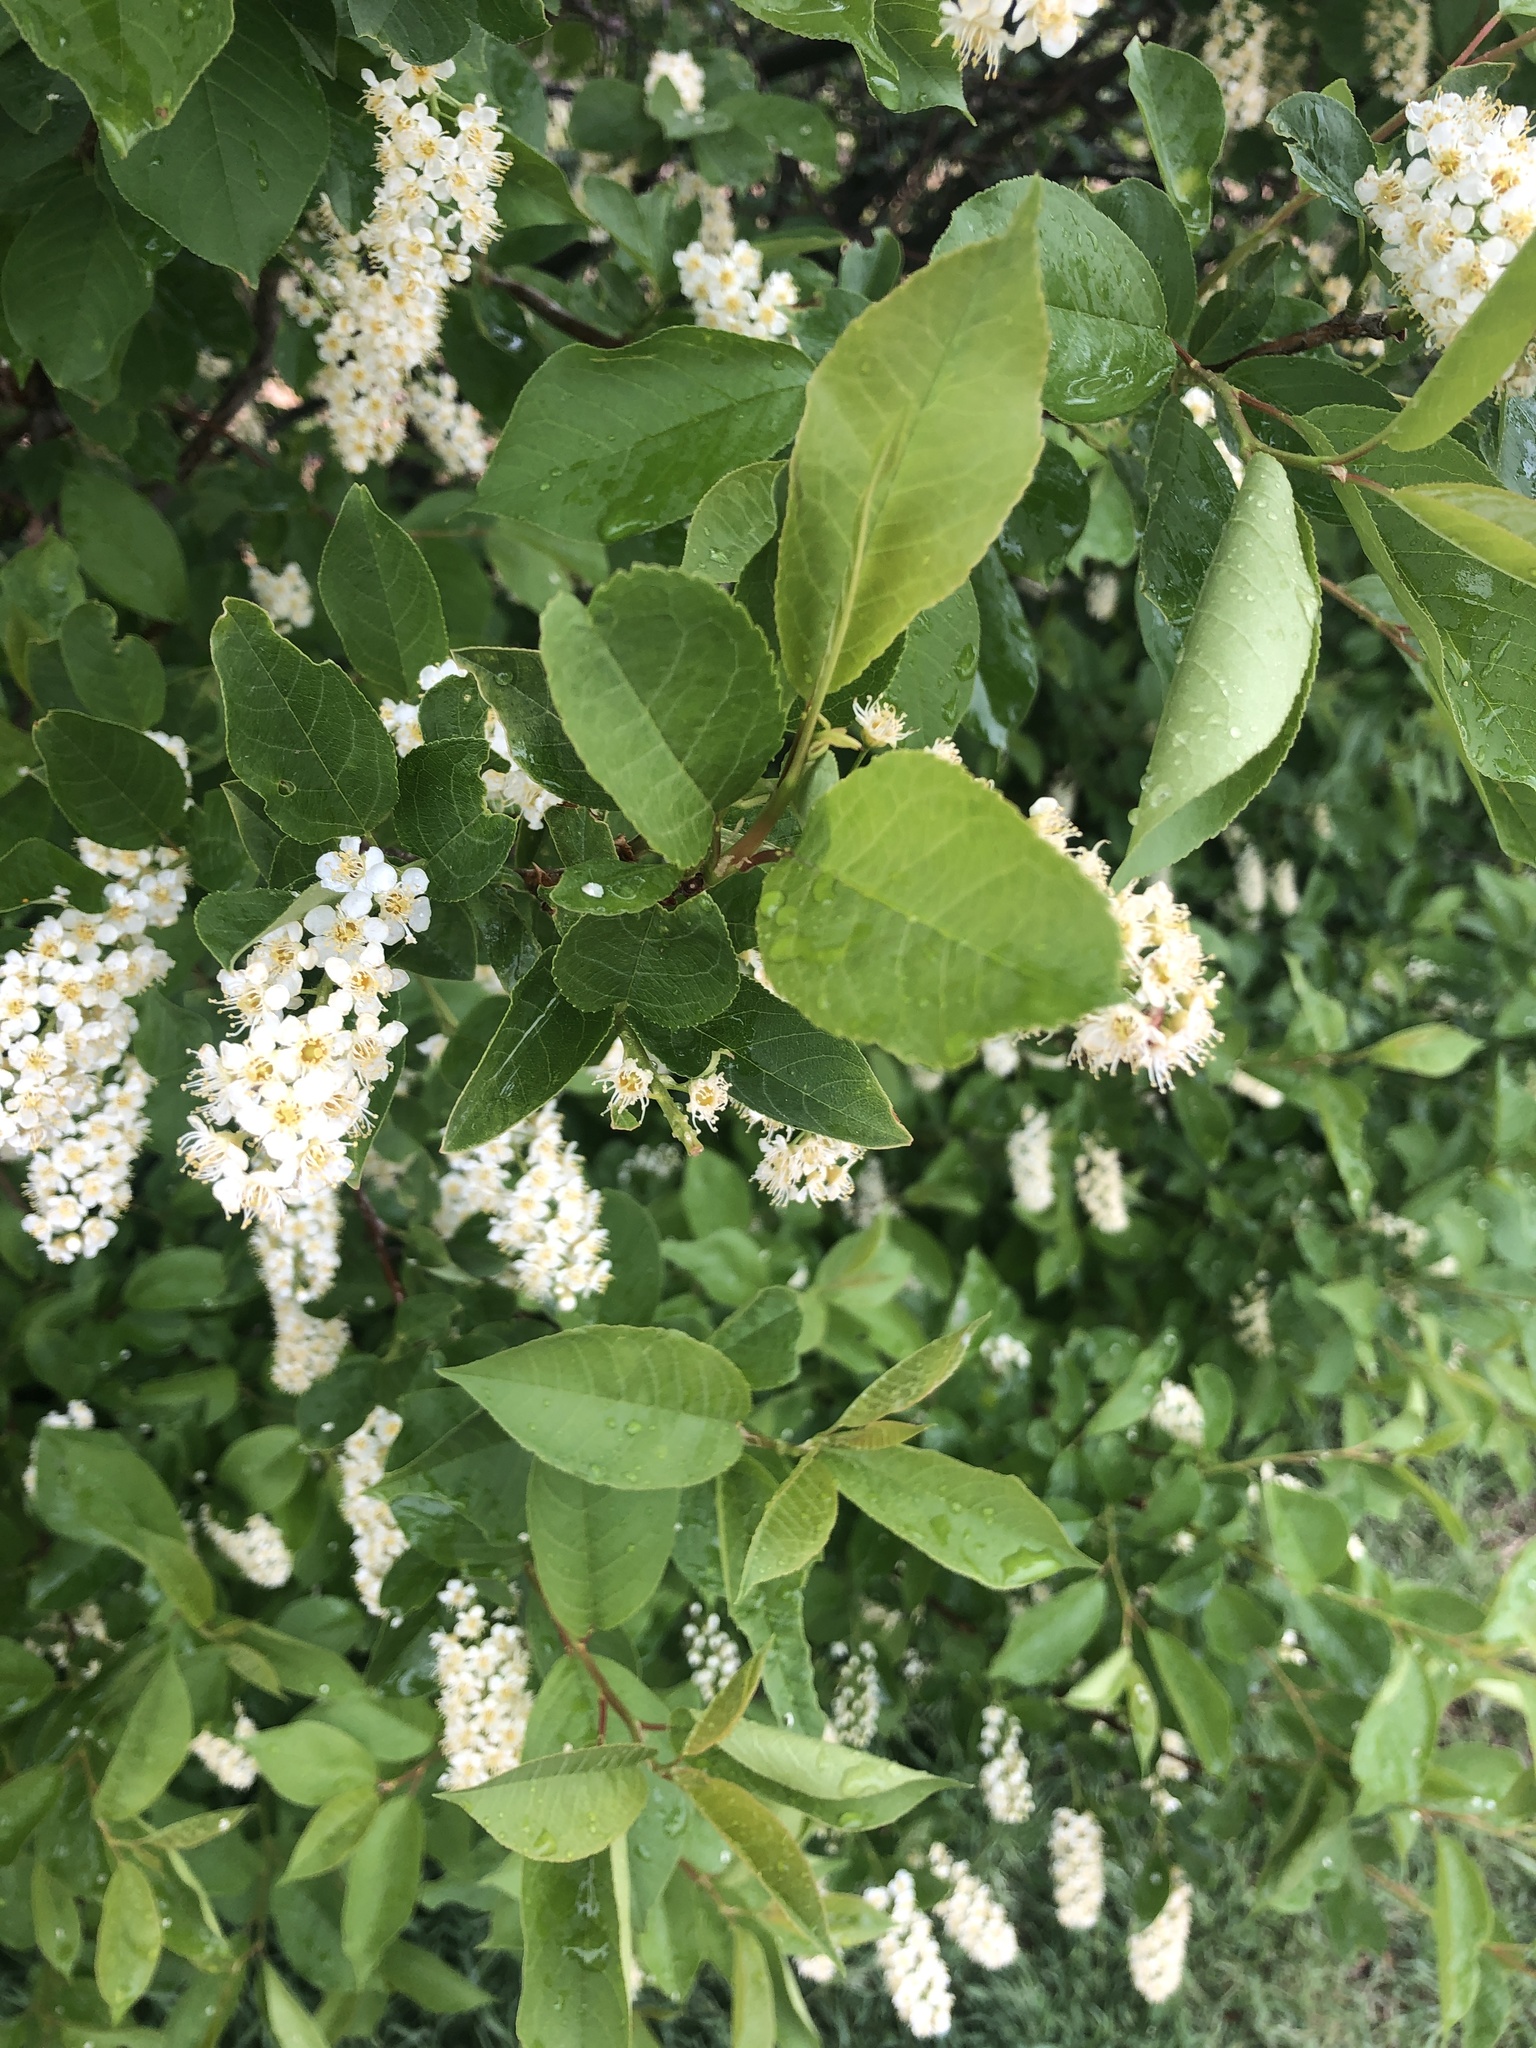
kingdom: Plantae
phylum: Tracheophyta
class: Magnoliopsida
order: Rosales
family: Rosaceae
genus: Prunus
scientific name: Prunus virginiana
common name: Chokecherry
